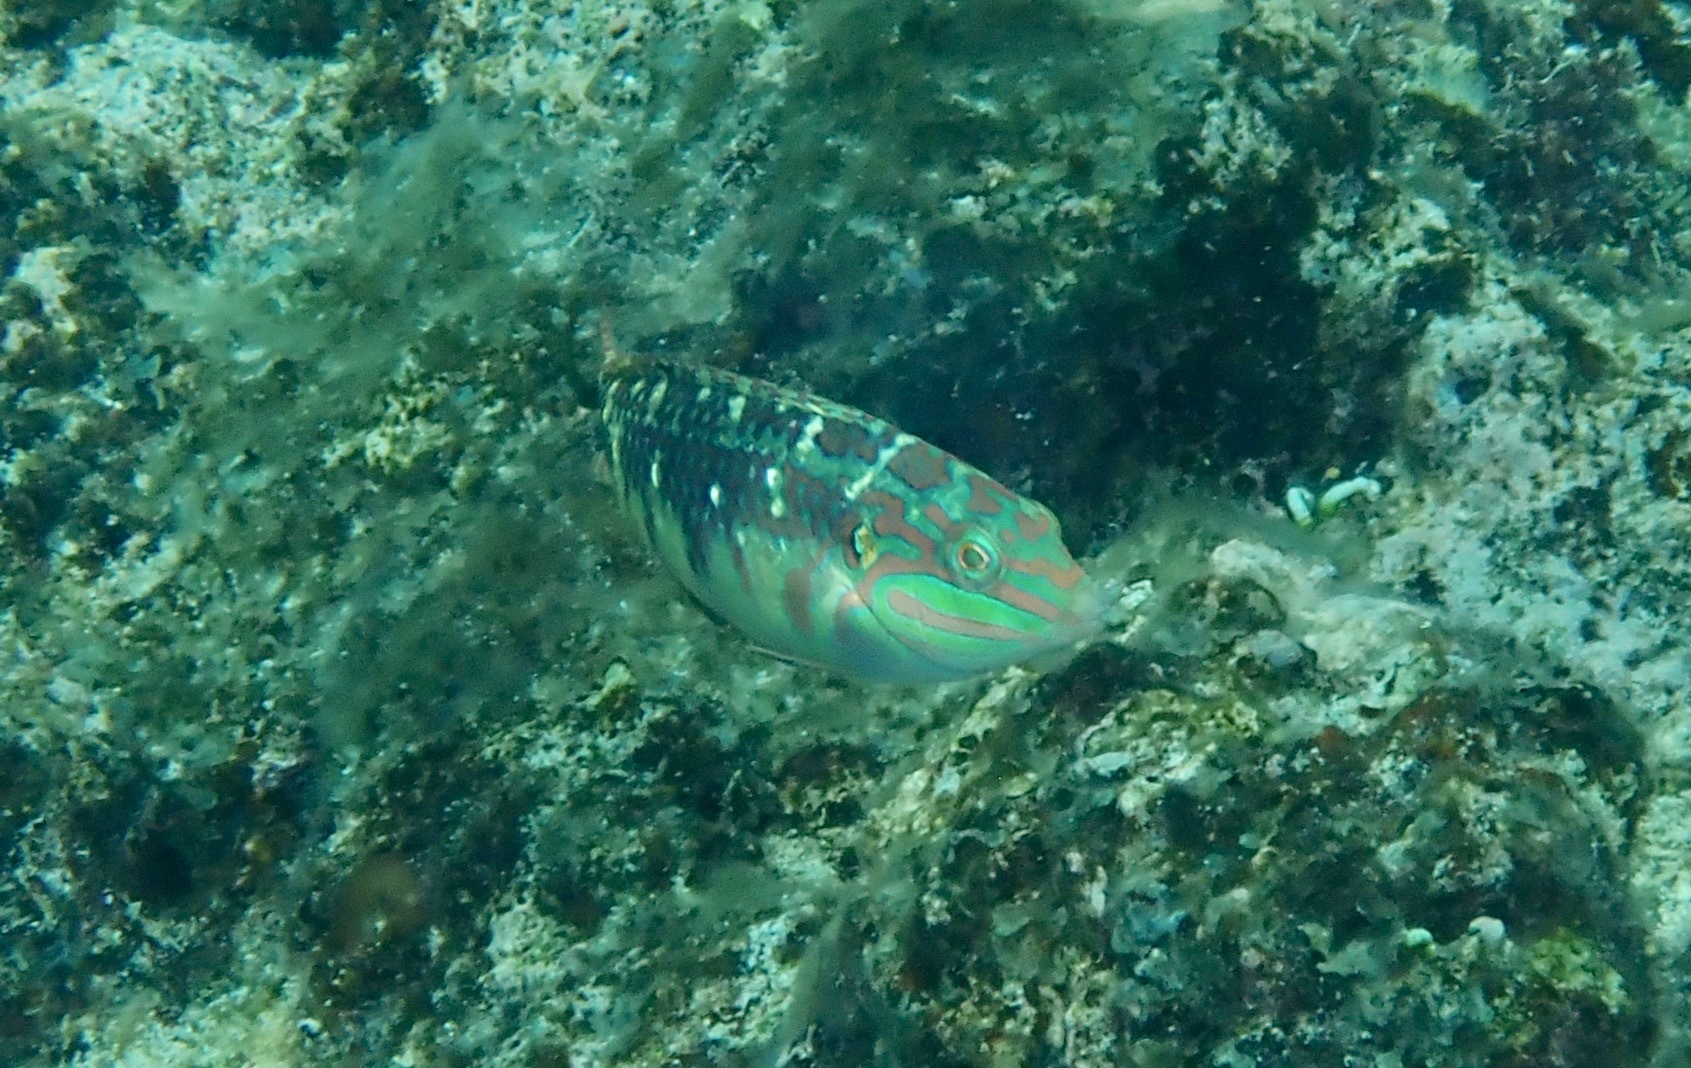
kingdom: Animalia
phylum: Chordata
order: Perciformes
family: Labridae
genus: Halichoeres
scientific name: Halichoeres margaritaceus
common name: Pink-belly wrasse
